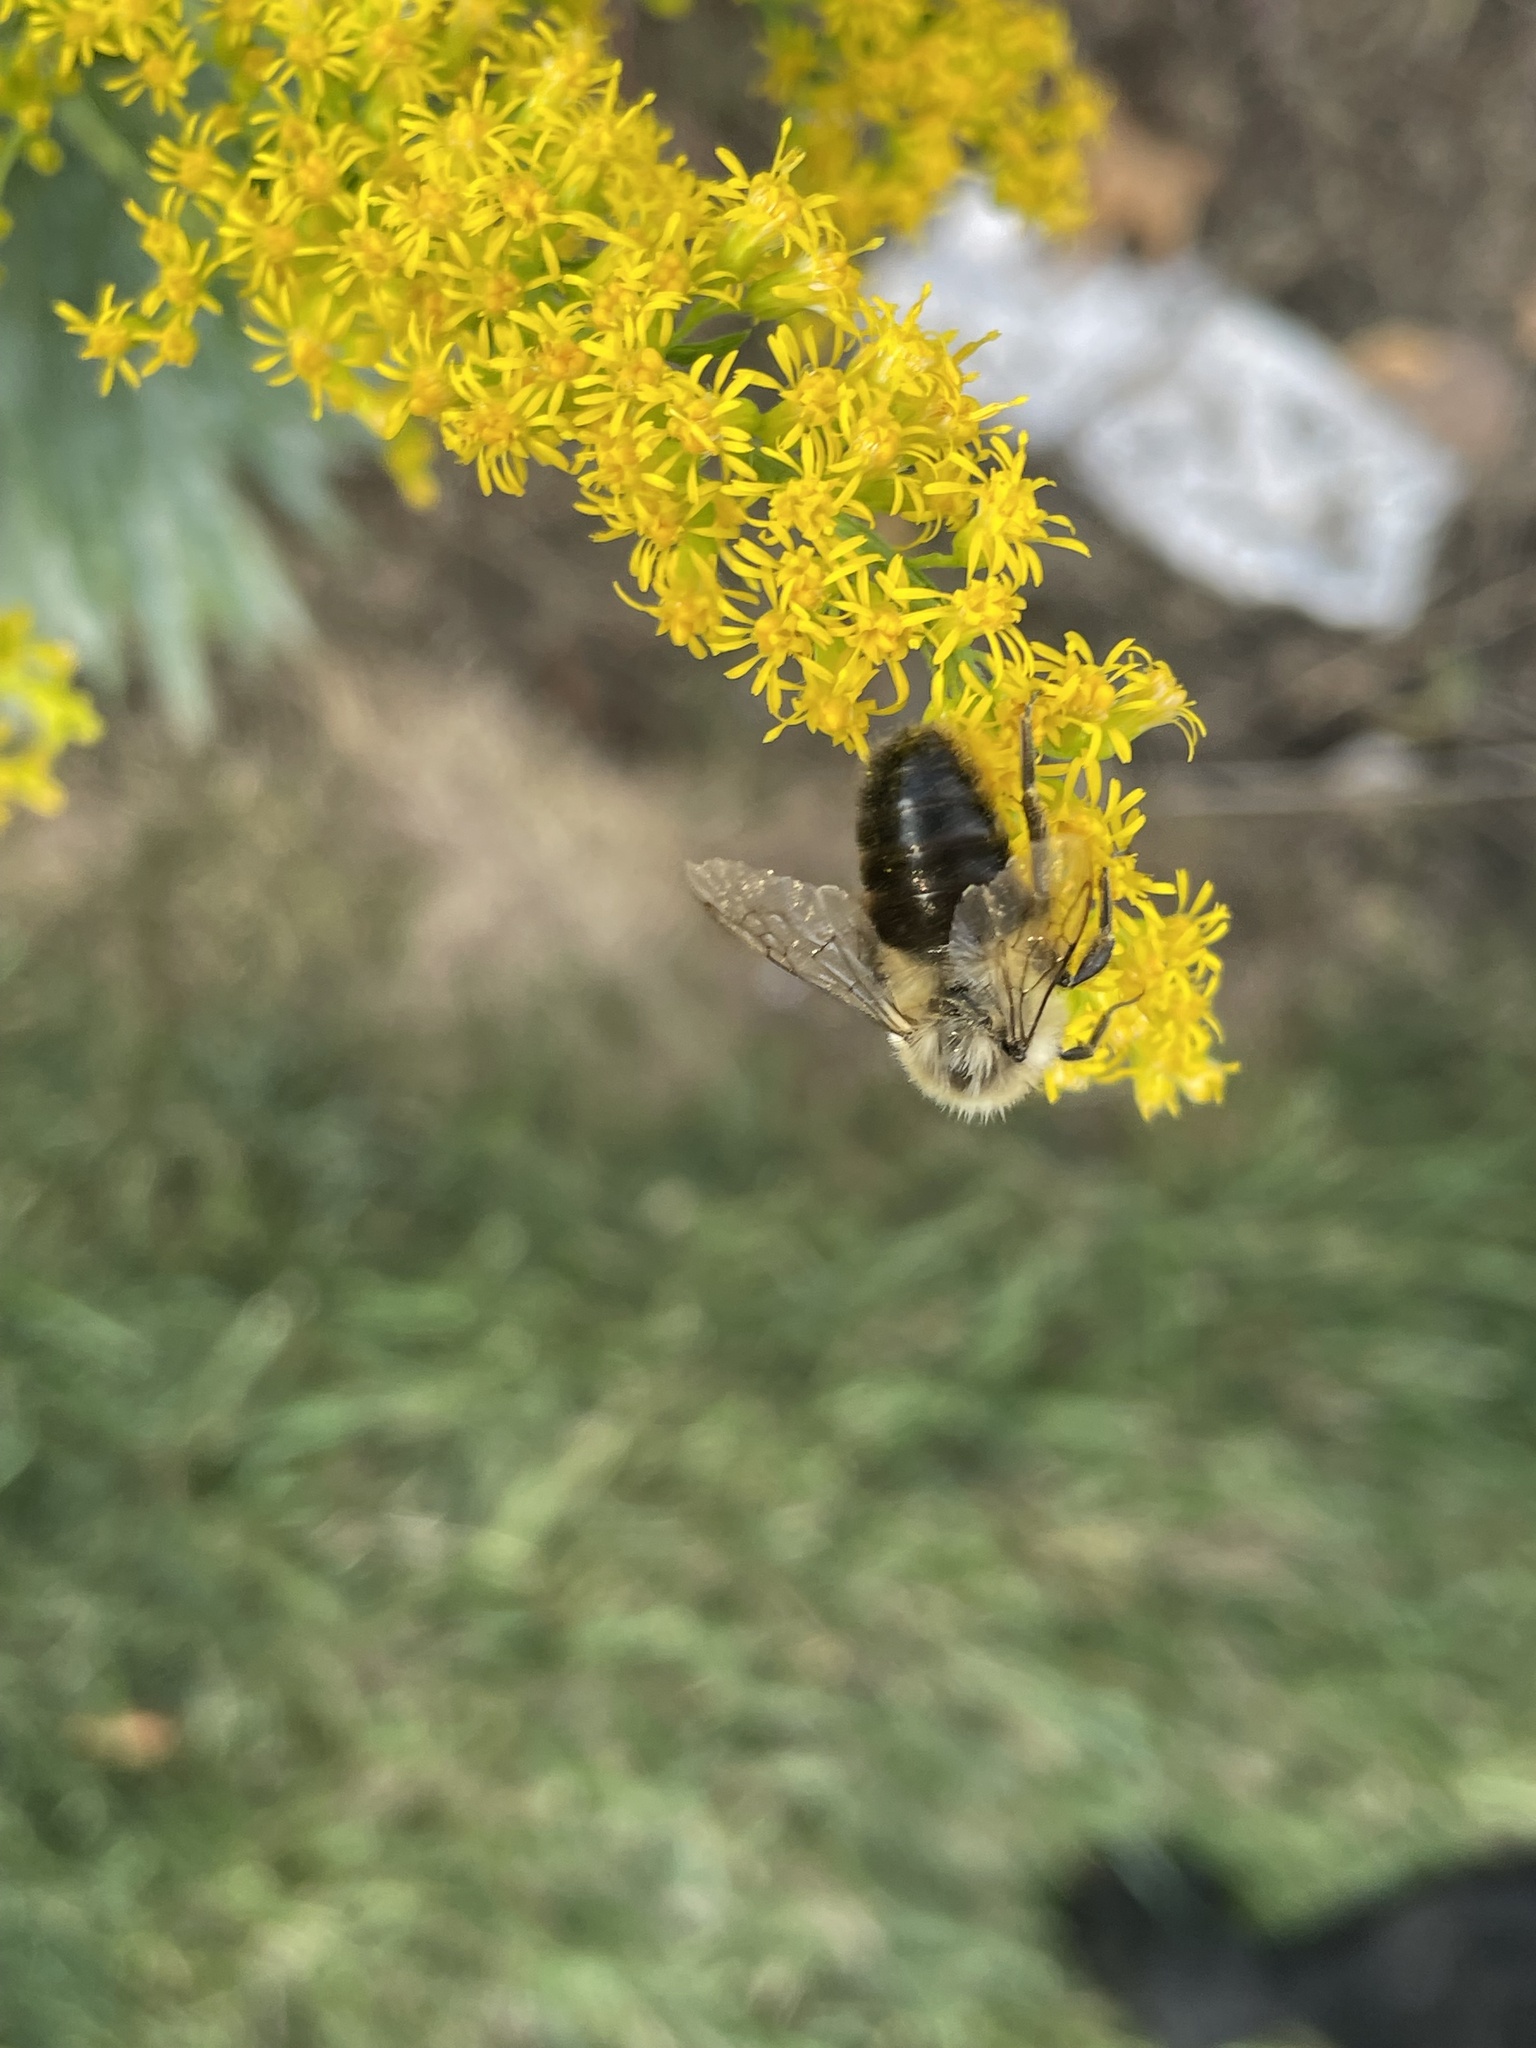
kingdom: Animalia
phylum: Arthropoda
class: Insecta
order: Hymenoptera
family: Apidae
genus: Bombus
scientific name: Bombus impatiens
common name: Common eastern bumble bee
